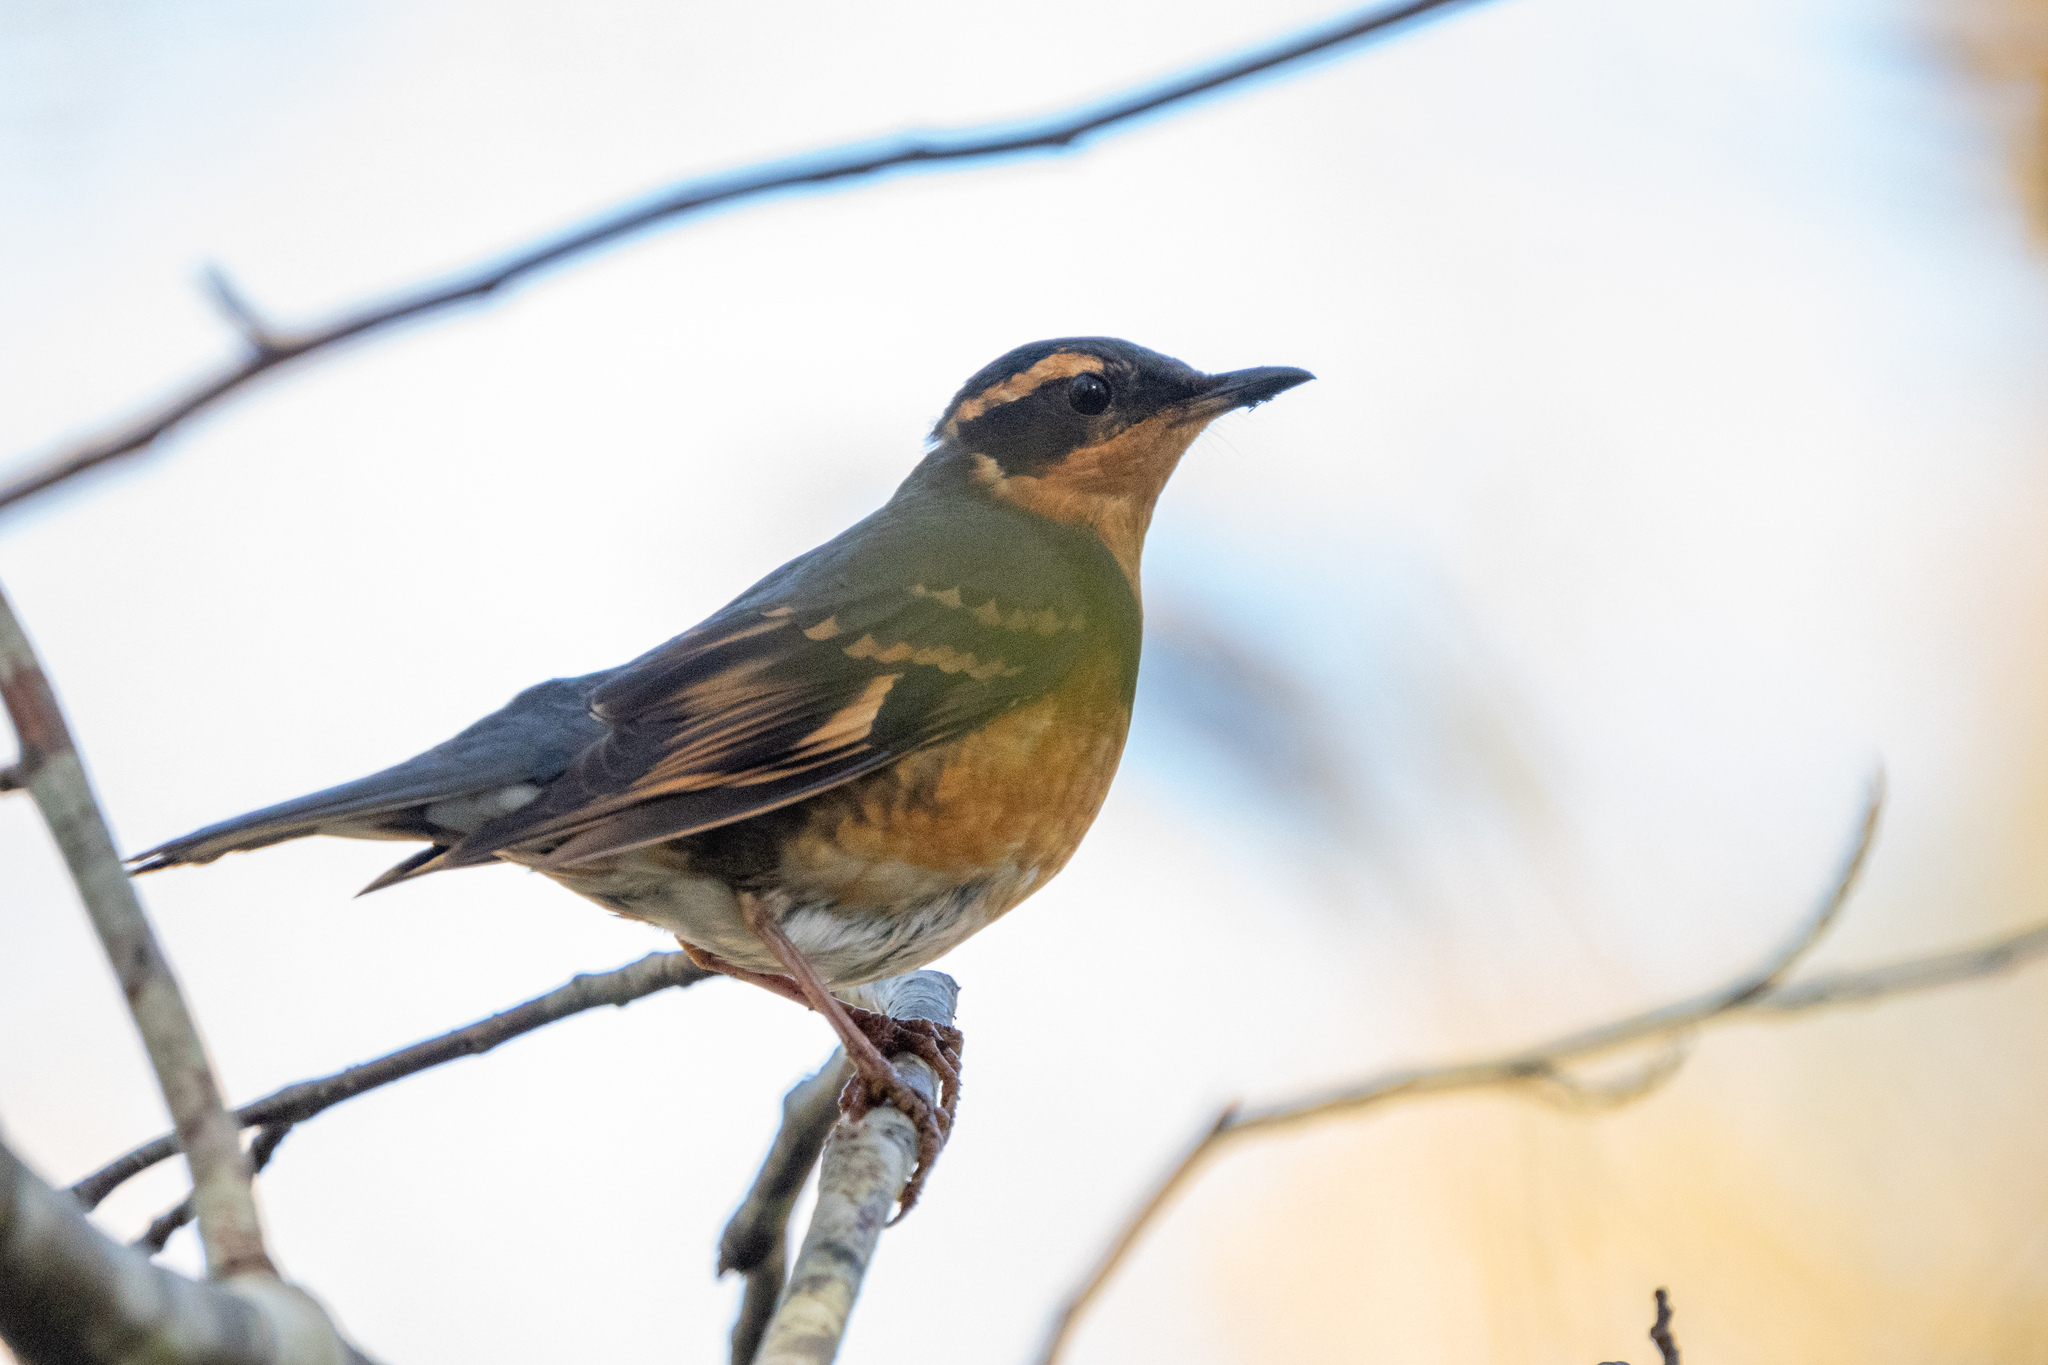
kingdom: Animalia
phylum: Chordata
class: Aves
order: Passeriformes
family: Turdidae
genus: Ixoreus
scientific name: Ixoreus naevius
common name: Varied thrush
